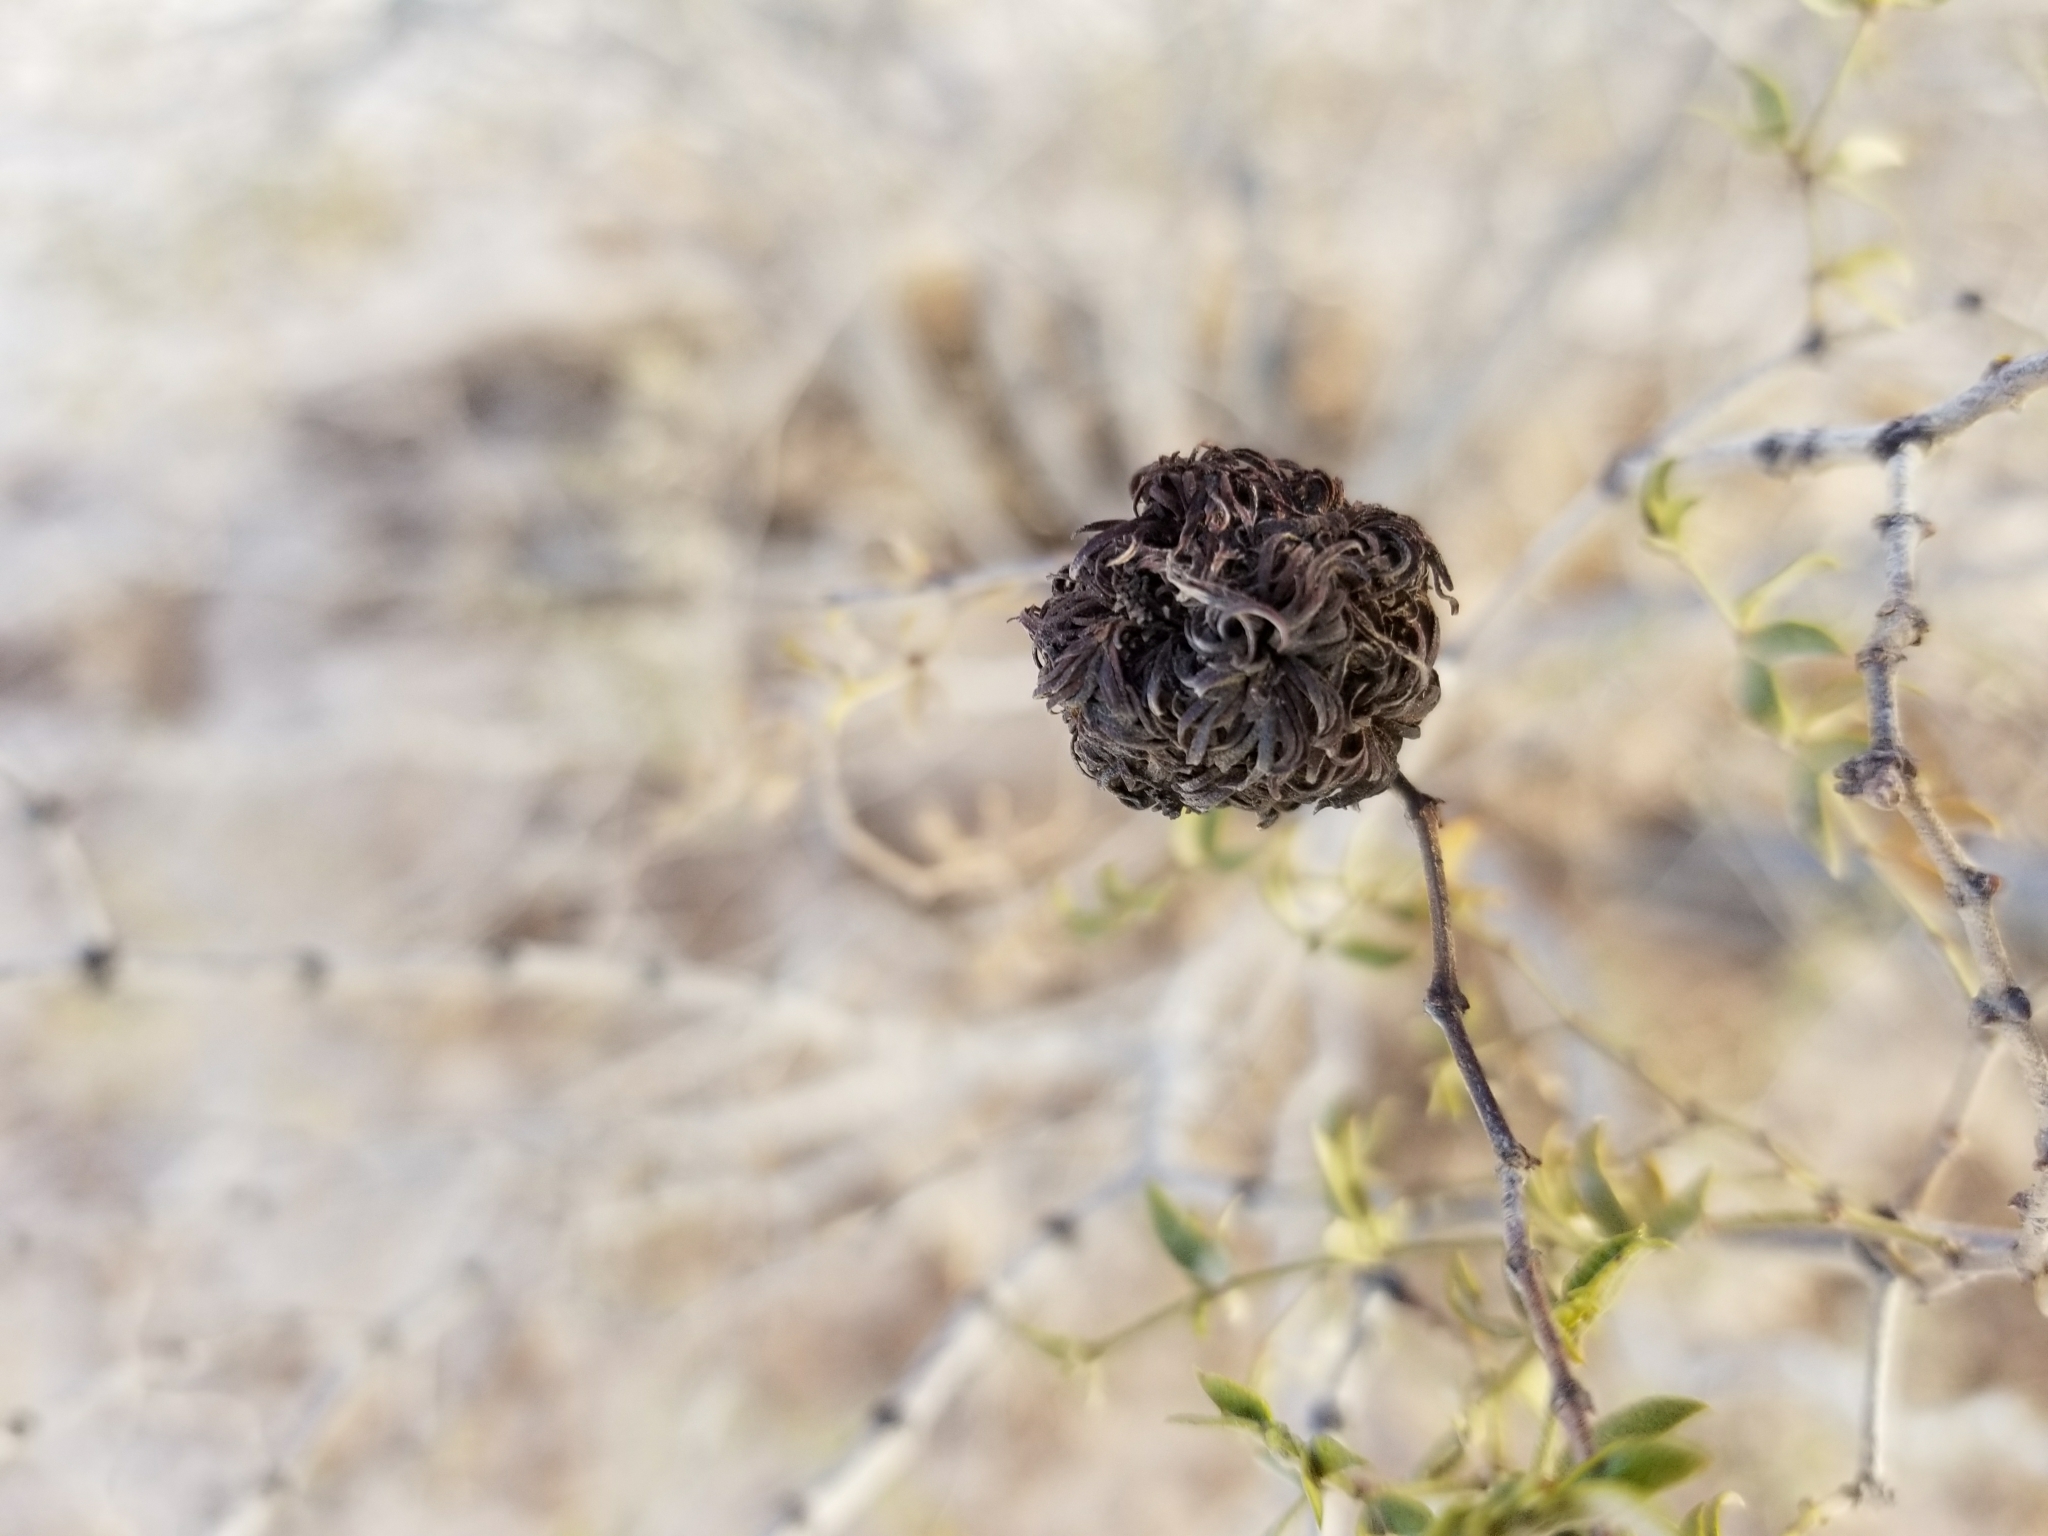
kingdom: Animalia
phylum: Arthropoda
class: Insecta
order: Diptera
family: Cecidomyiidae
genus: Asphondylia
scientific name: Asphondylia auripila
